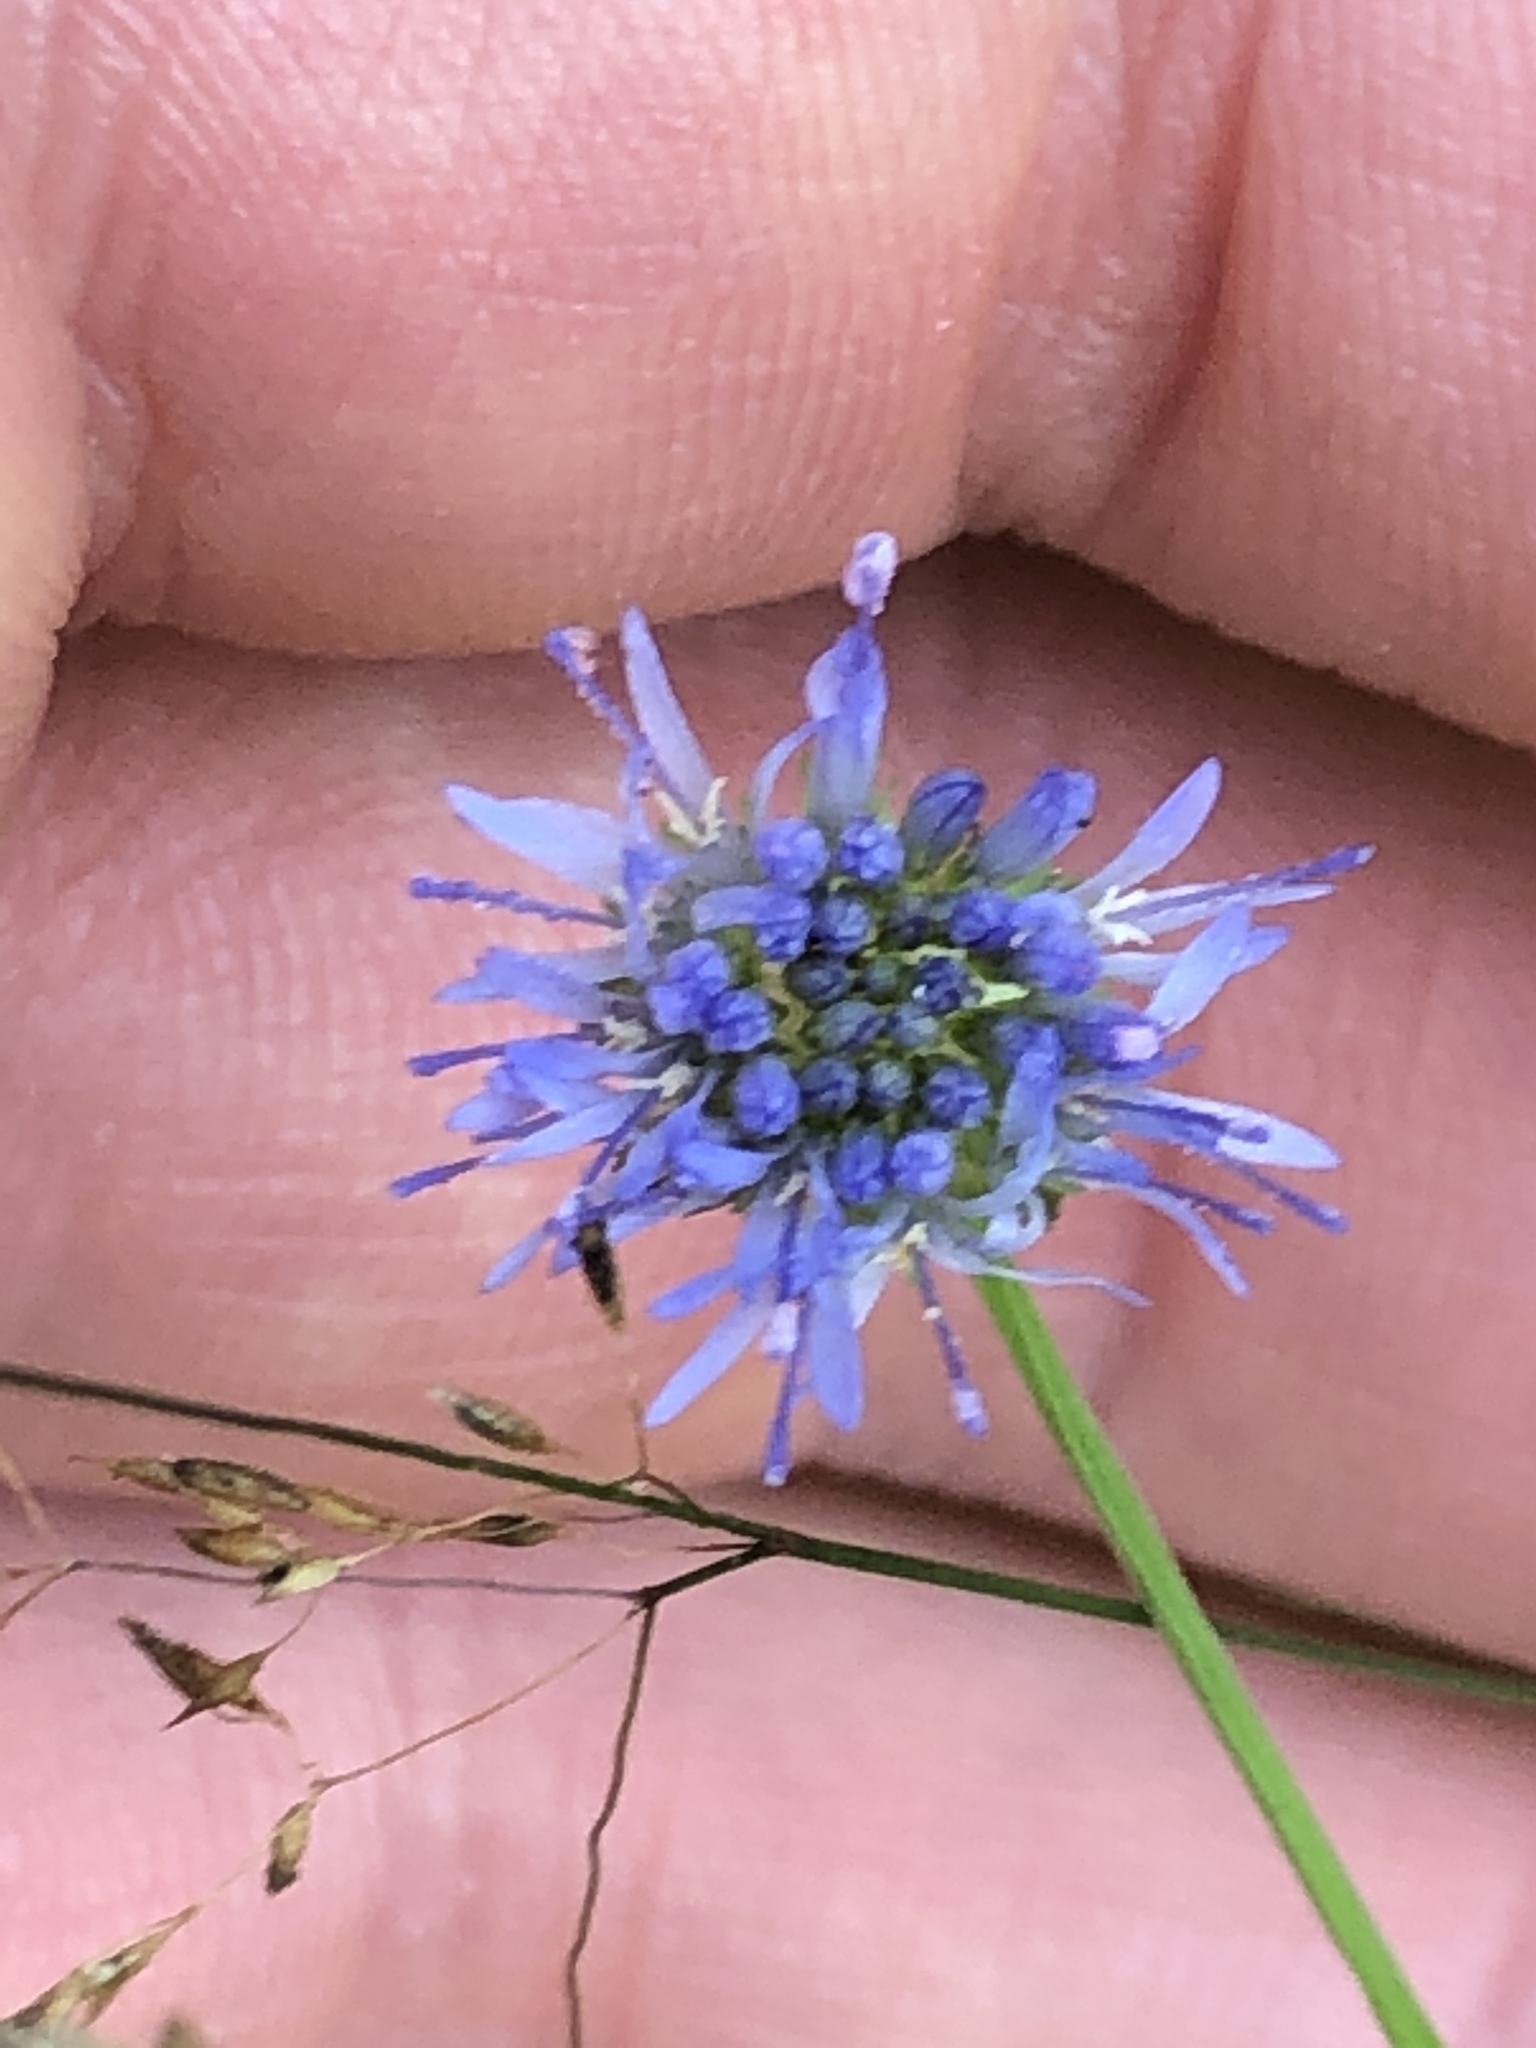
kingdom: Plantae
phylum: Tracheophyta
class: Magnoliopsida
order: Asterales
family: Campanulaceae
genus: Jasione
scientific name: Jasione montana
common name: Sheep's-bit
